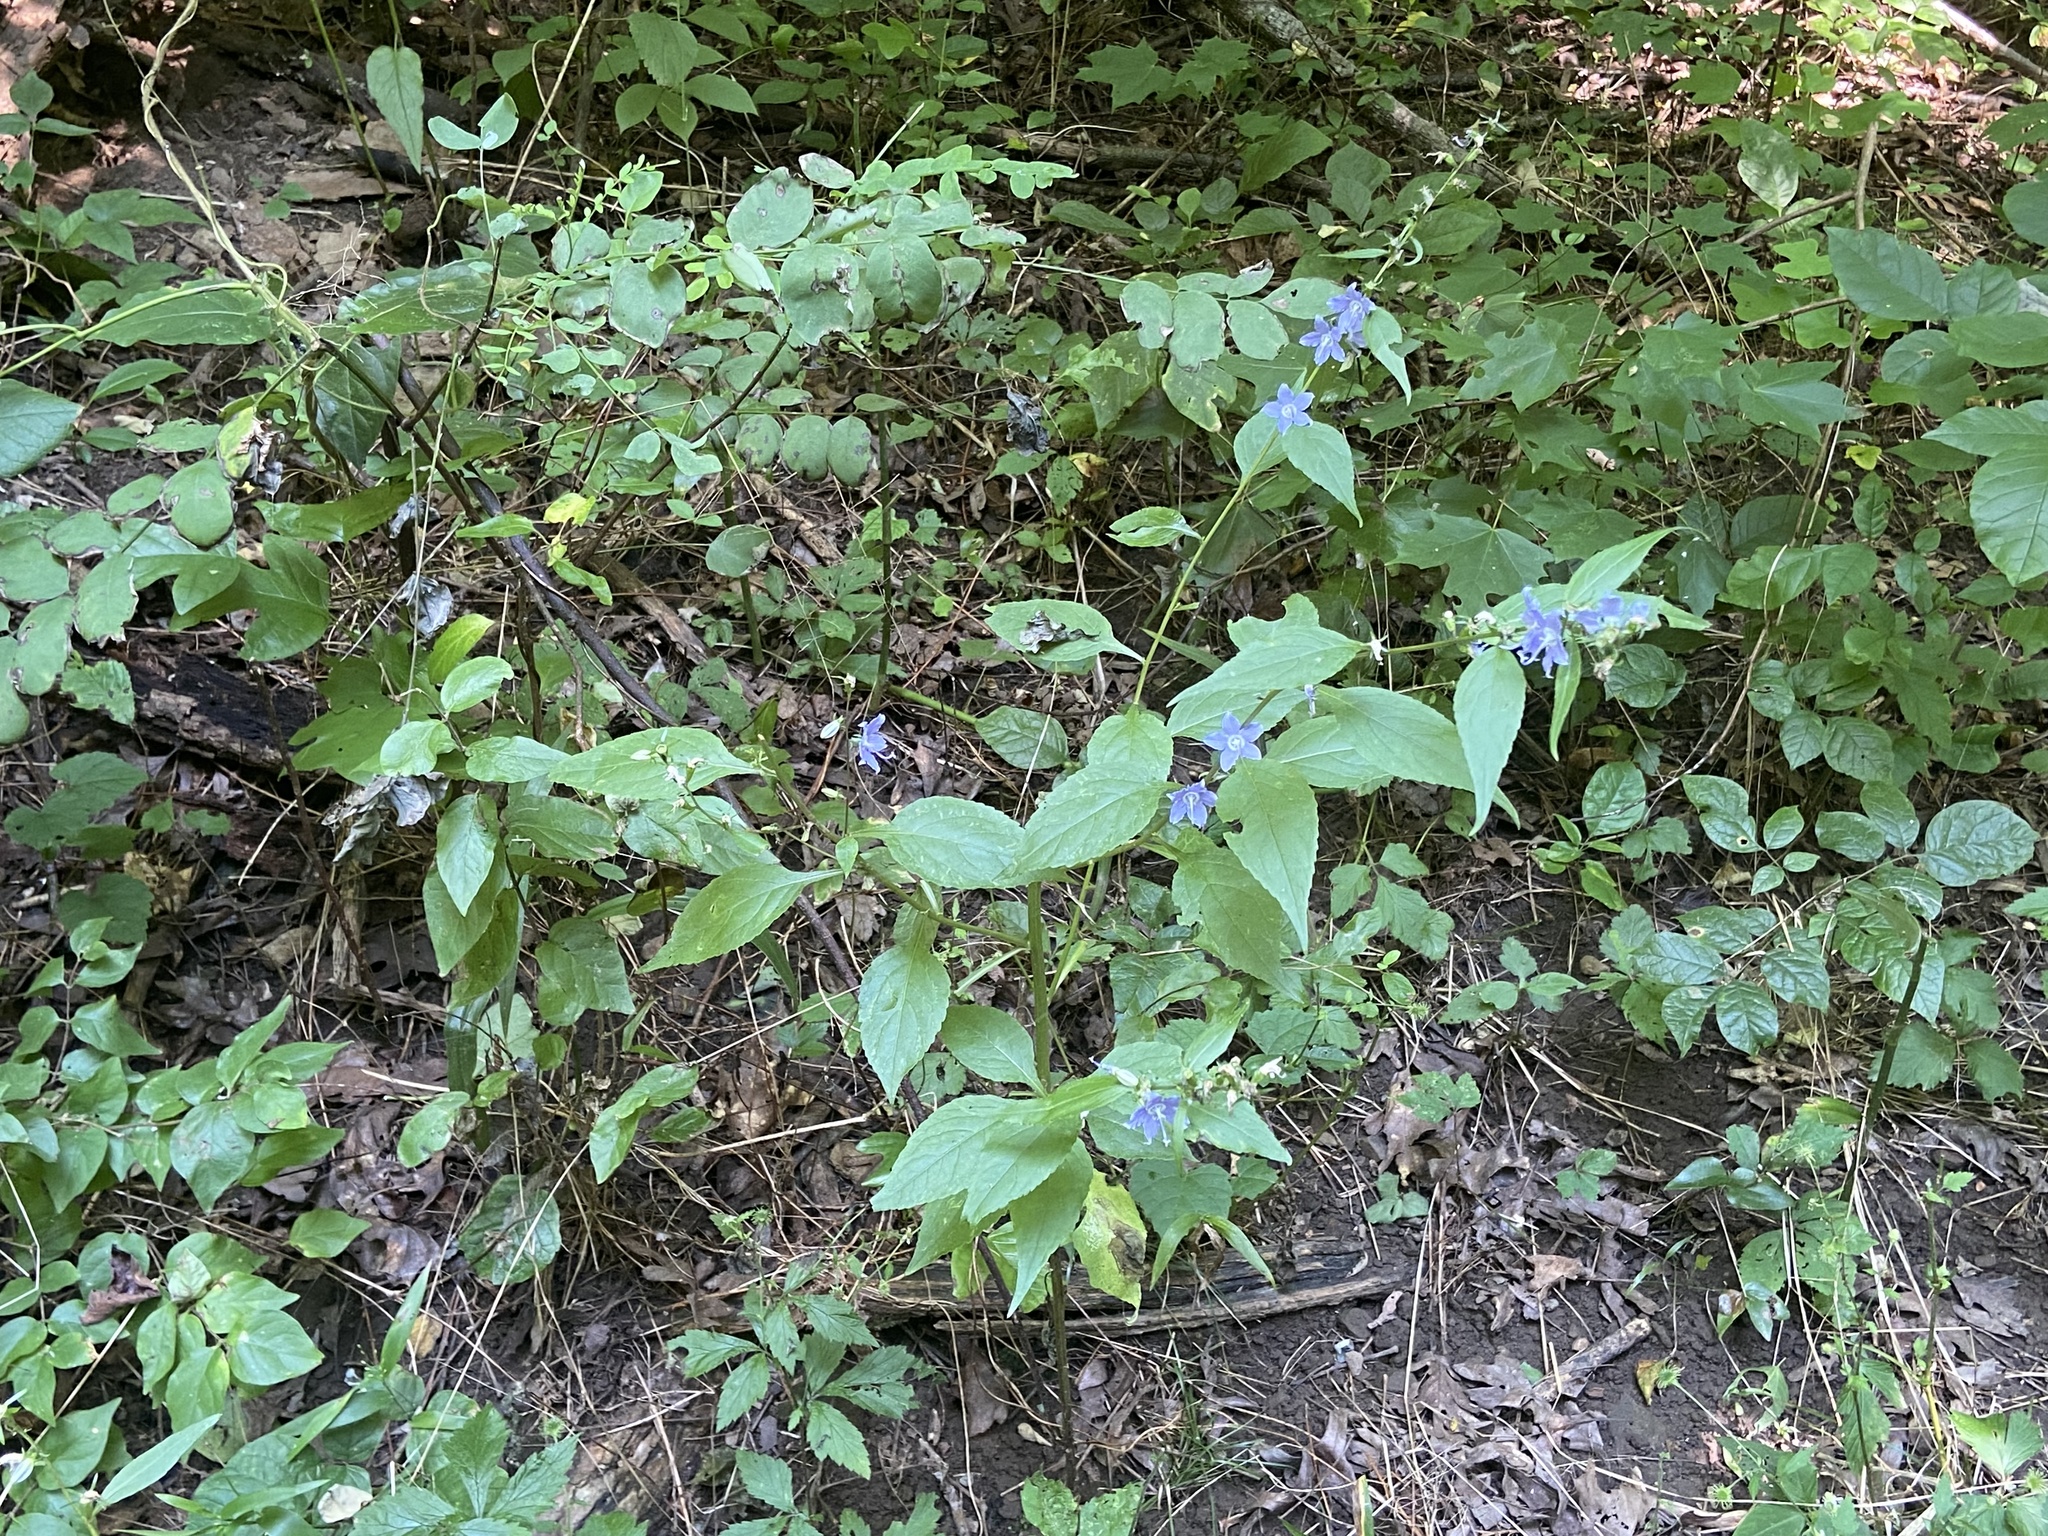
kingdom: Plantae
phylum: Tracheophyta
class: Magnoliopsida
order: Asterales
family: Campanulaceae
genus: Campanulastrum
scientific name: Campanulastrum americanum
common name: American bellflower
